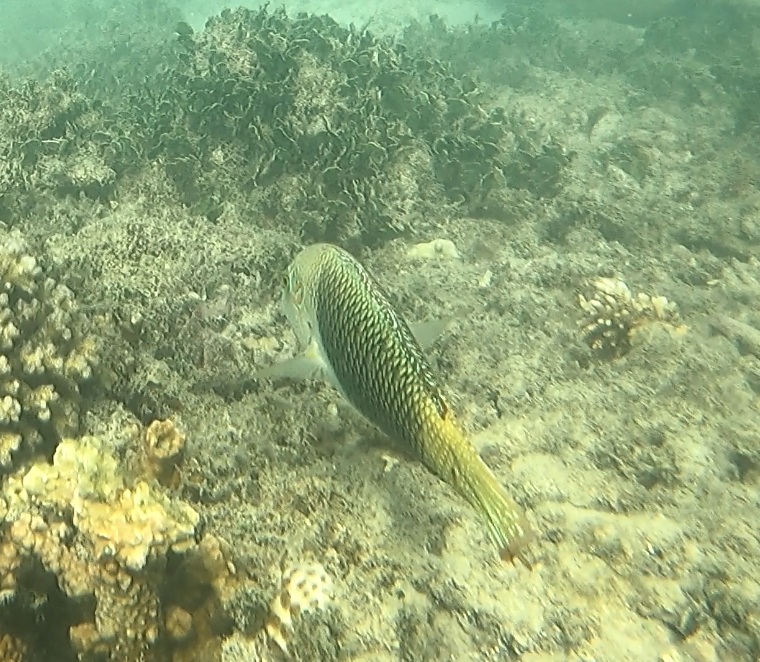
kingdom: Animalia
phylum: Chordata
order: Perciformes
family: Labridae
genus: Hemigymnus
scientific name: Hemigymnus melapterus
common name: Blackeye thicklip
